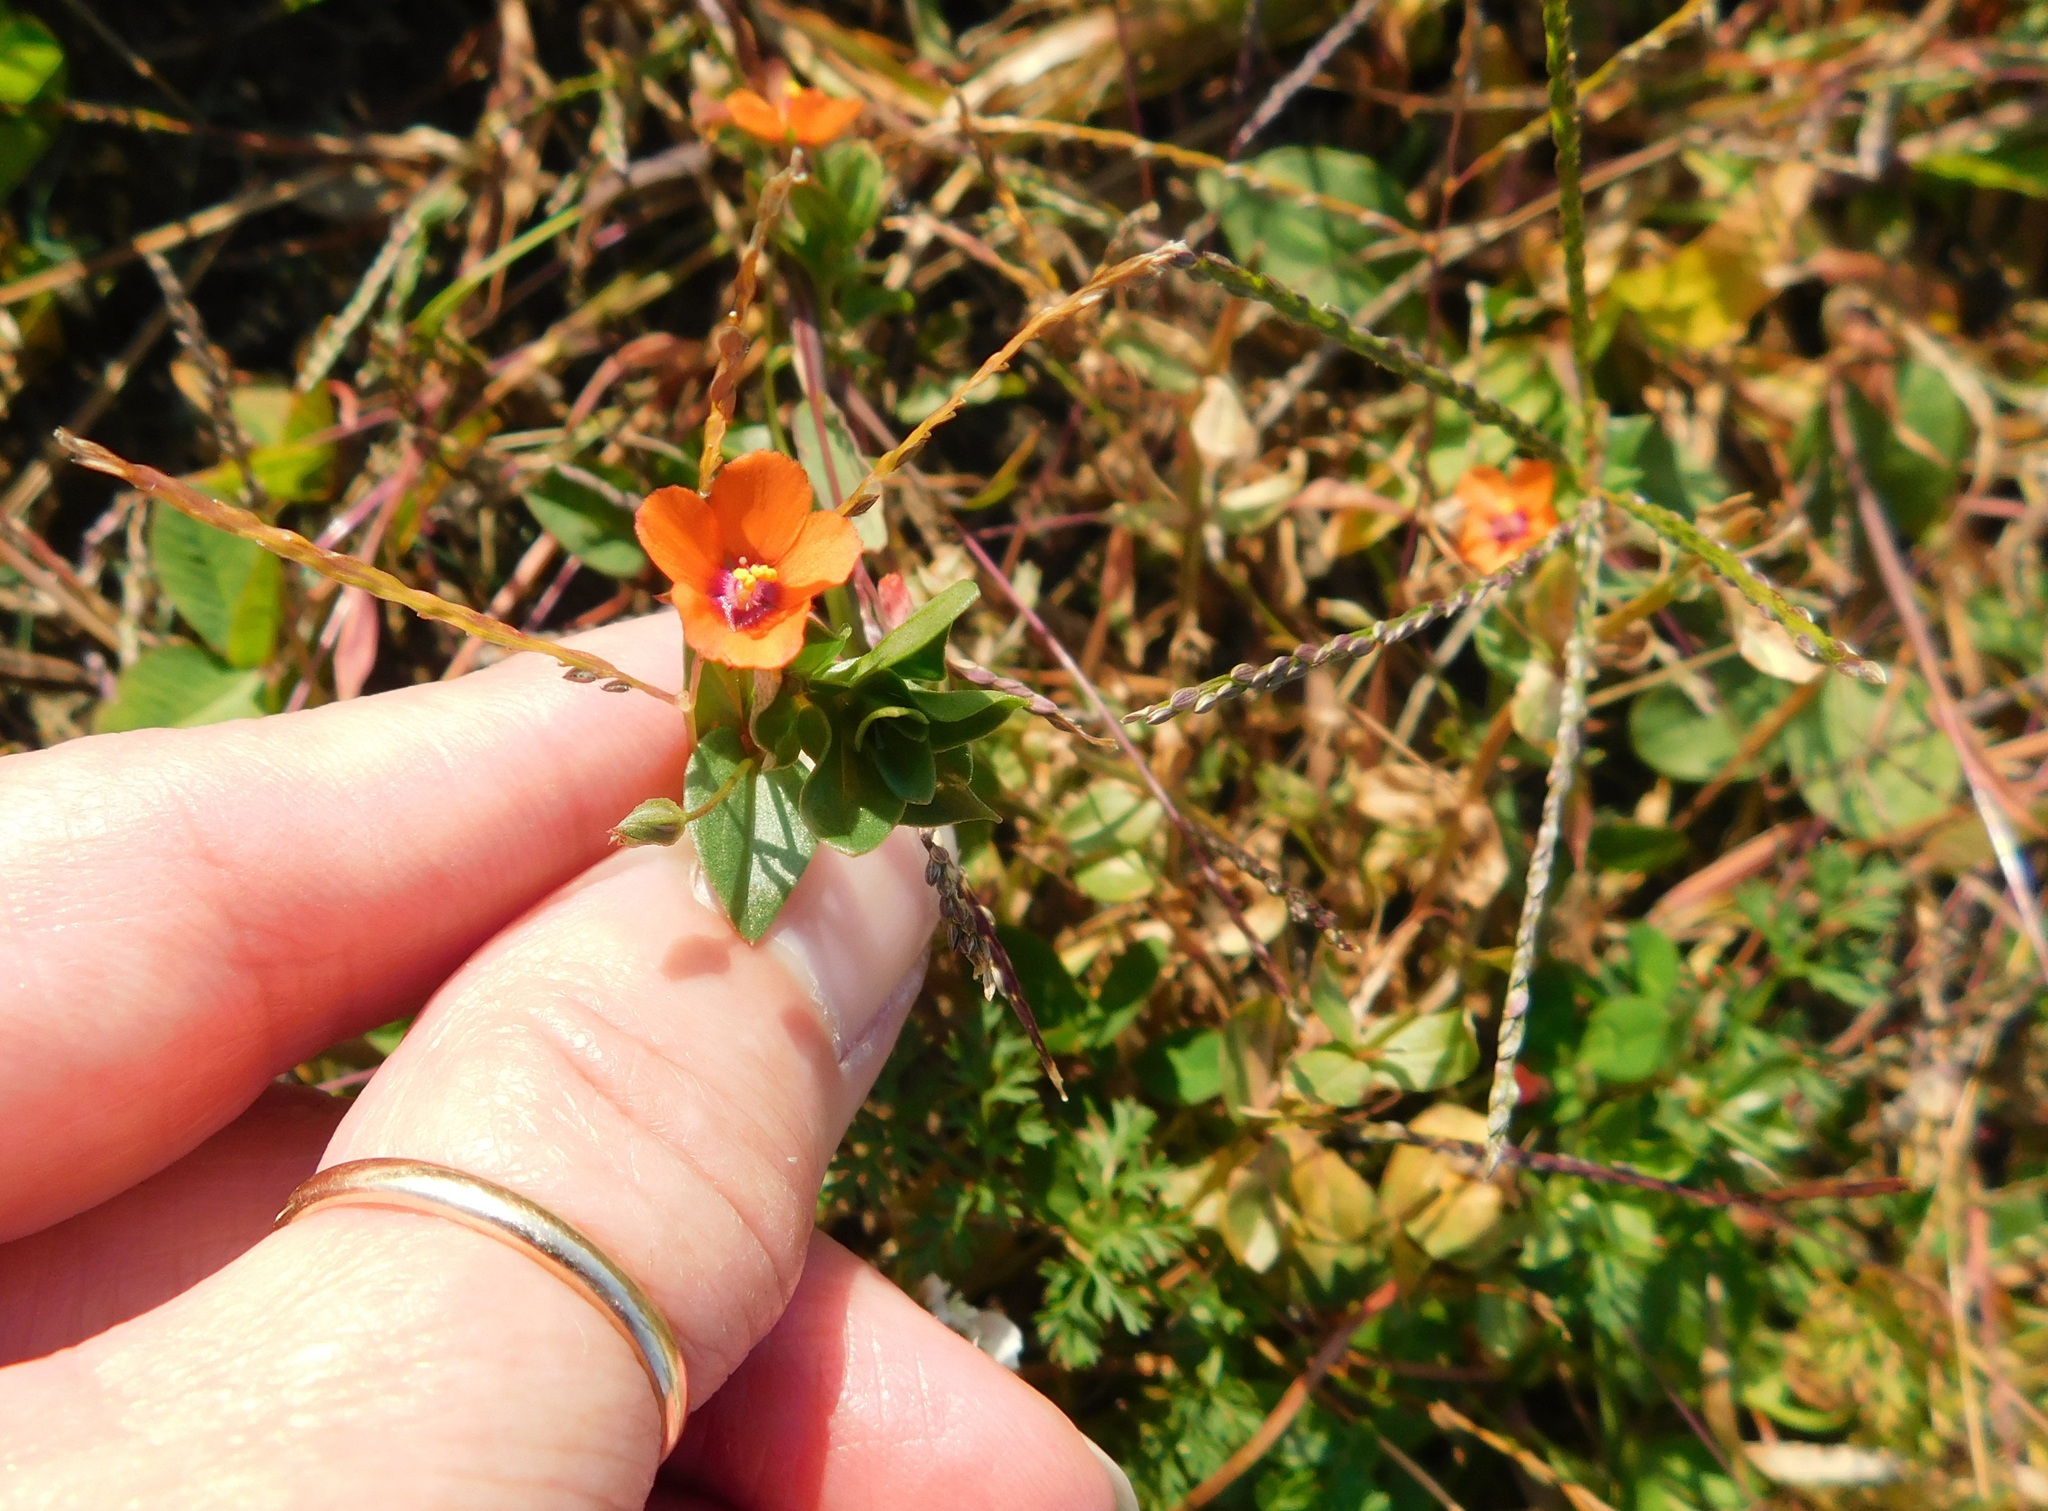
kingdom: Plantae
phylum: Tracheophyta
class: Magnoliopsida
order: Ericales
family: Primulaceae
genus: Lysimachia
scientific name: Lysimachia arvensis
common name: Scarlet pimpernel
